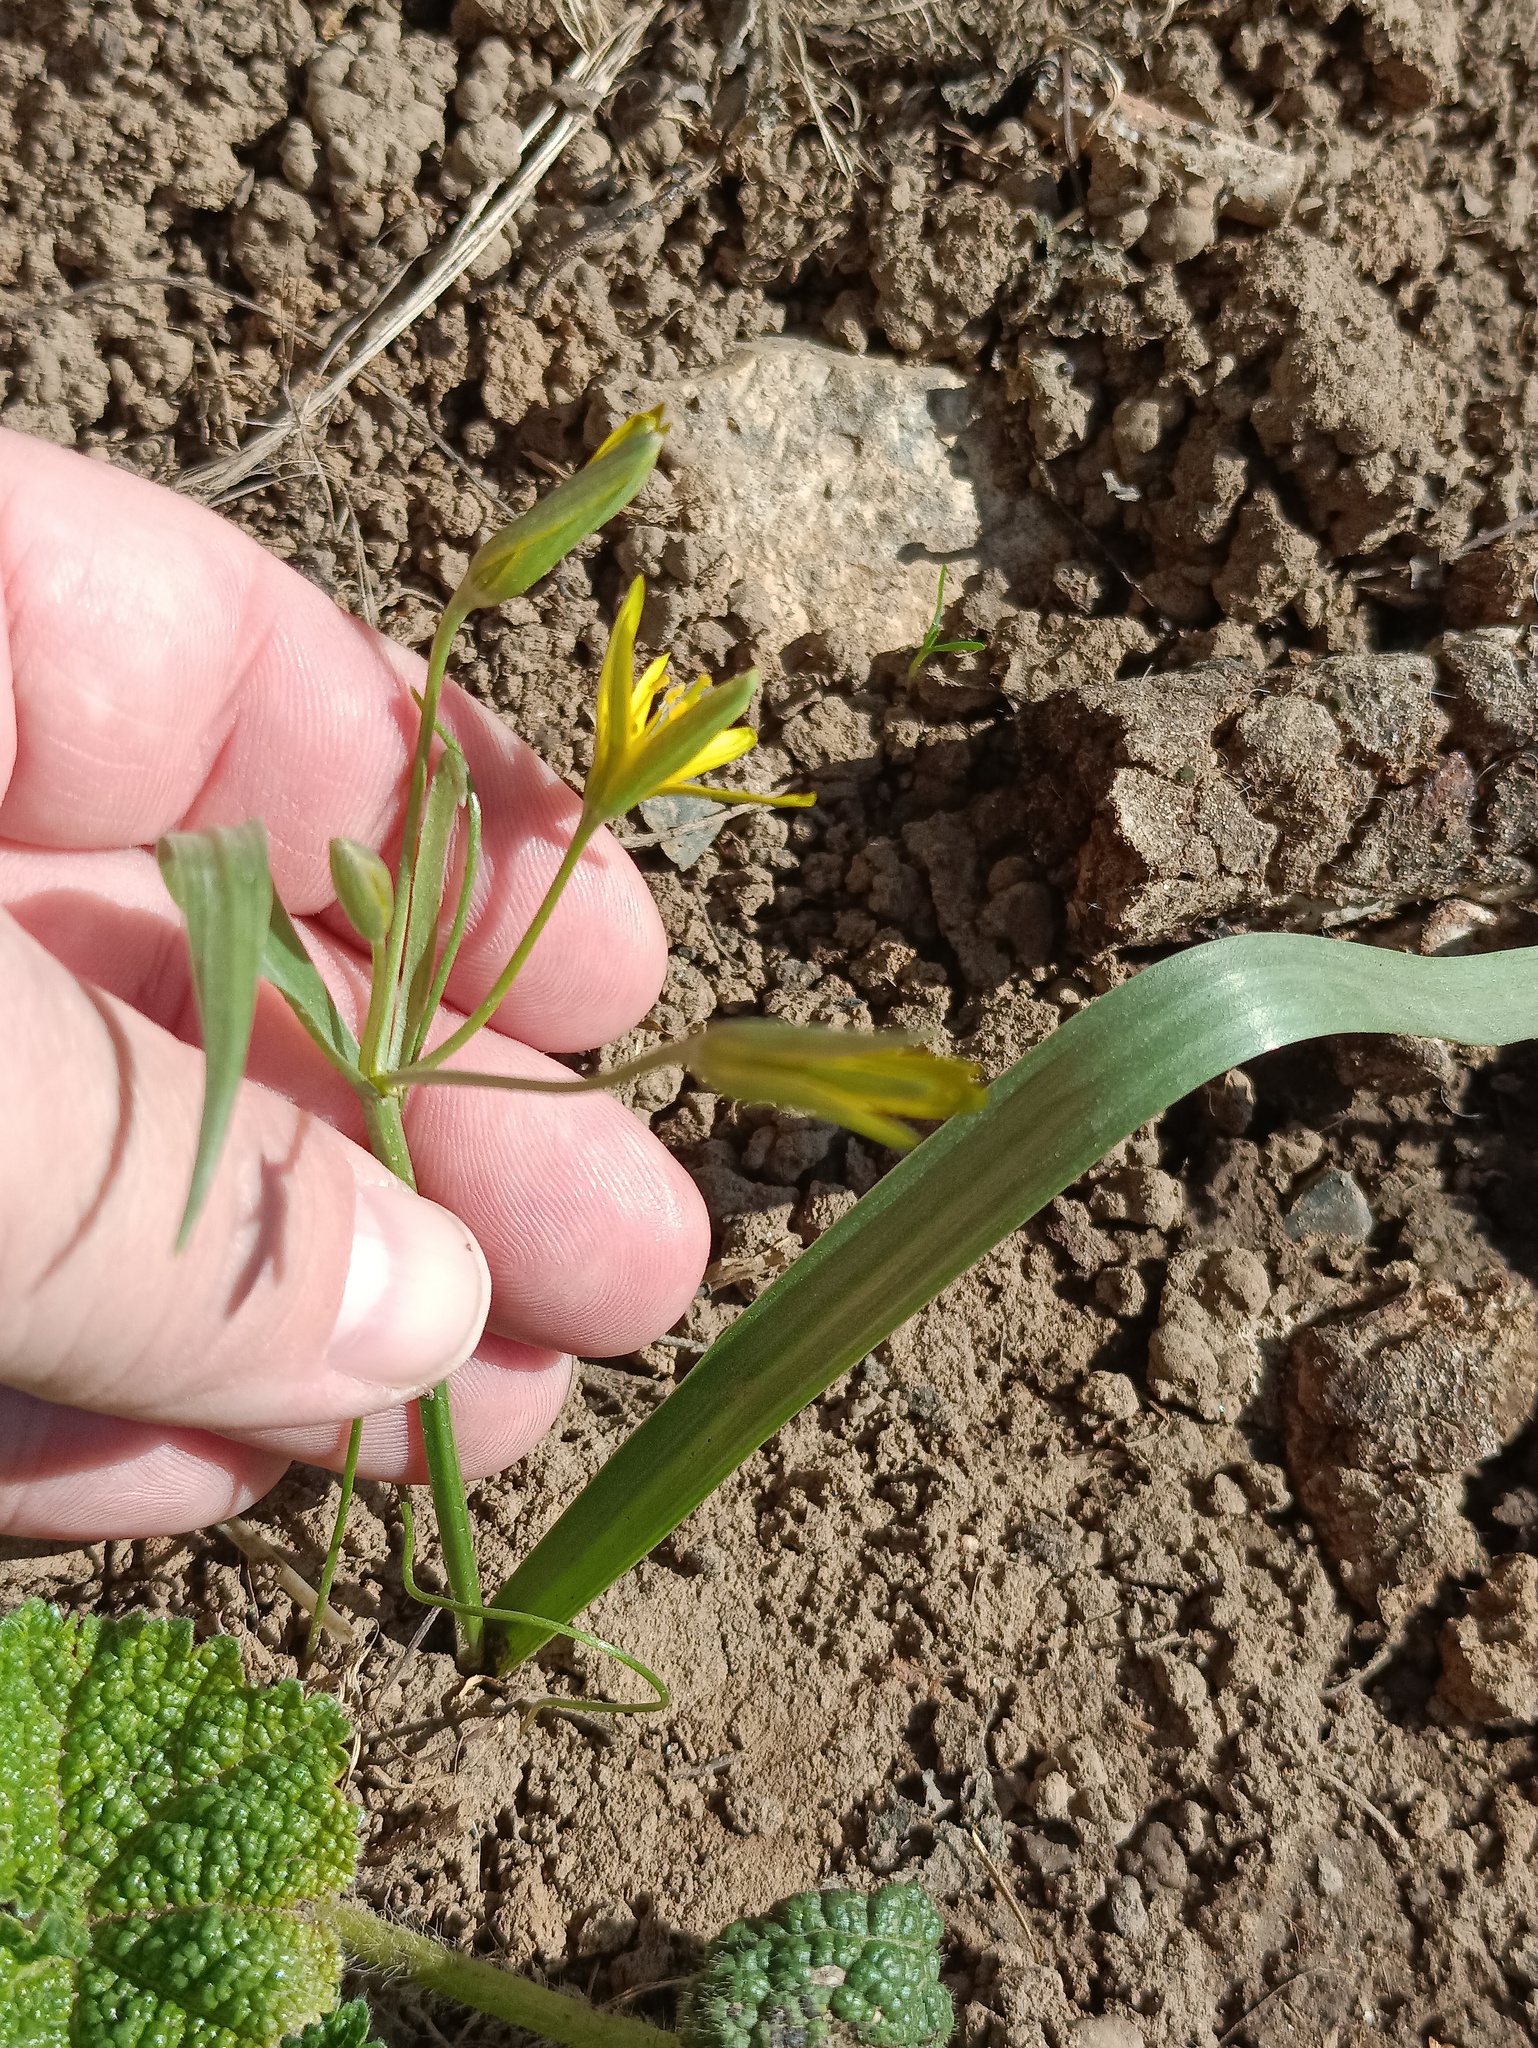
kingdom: Plantae
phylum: Tracheophyta
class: Liliopsida
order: Liliales
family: Liliaceae
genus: Gagea
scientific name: Gagea lutea
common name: Yellow star-of-bethlehem
